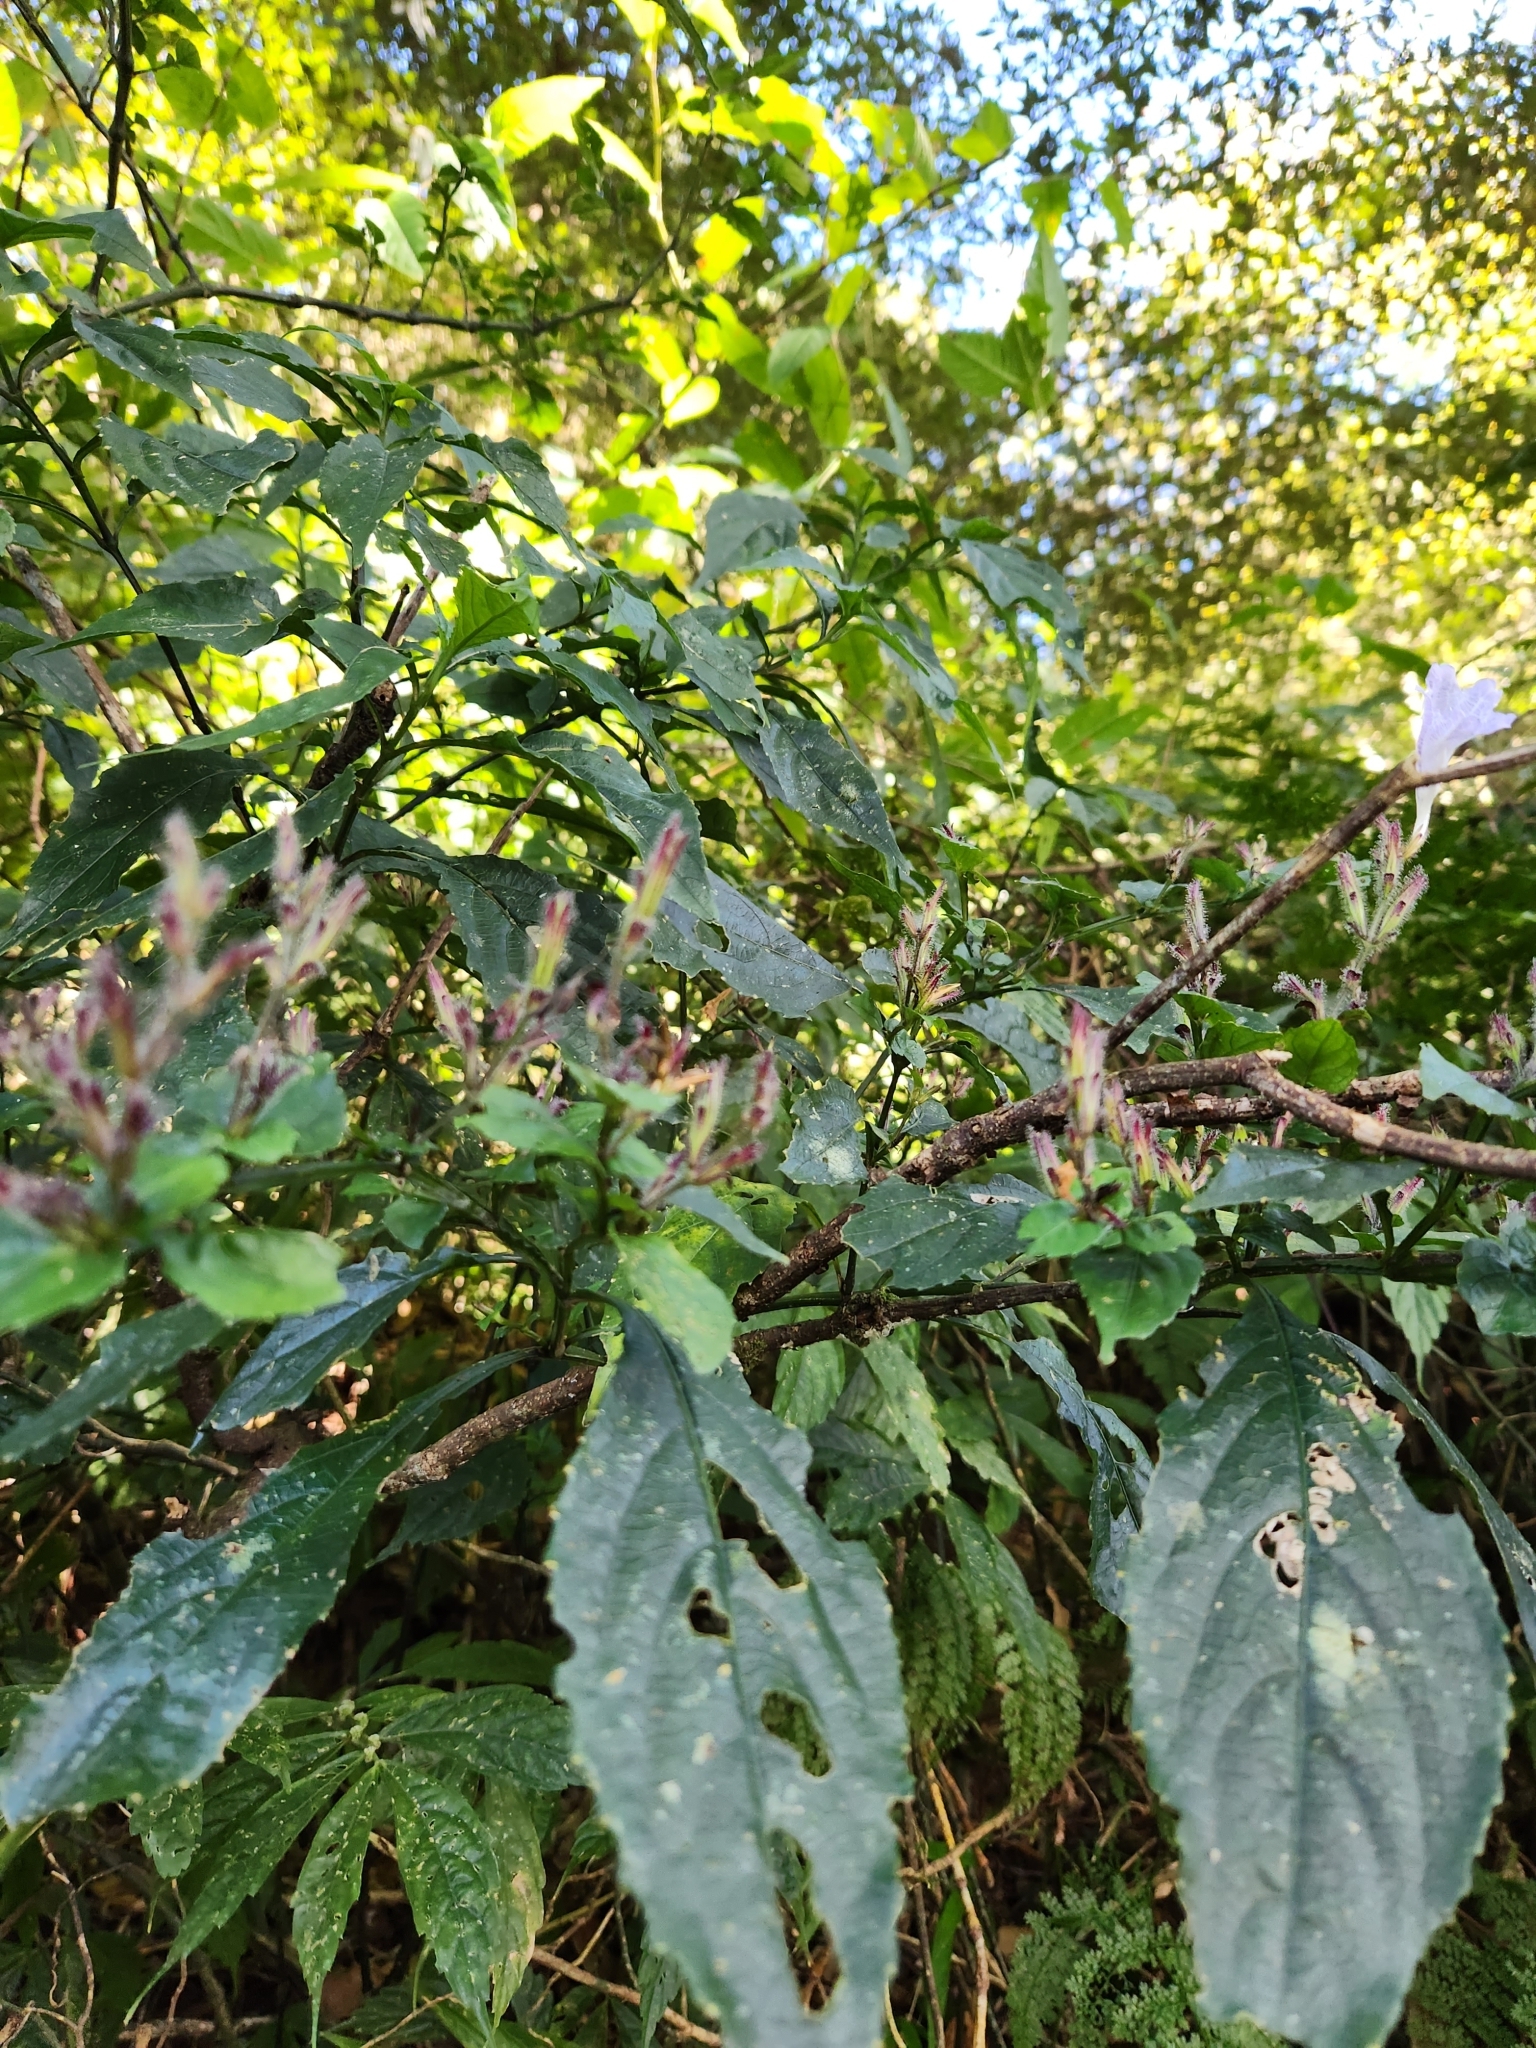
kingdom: Plantae
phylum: Tracheophyta
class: Magnoliopsida
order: Lamiales
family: Acanthaceae
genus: Strobilanthes
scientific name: Strobilanthes flexicaulis
